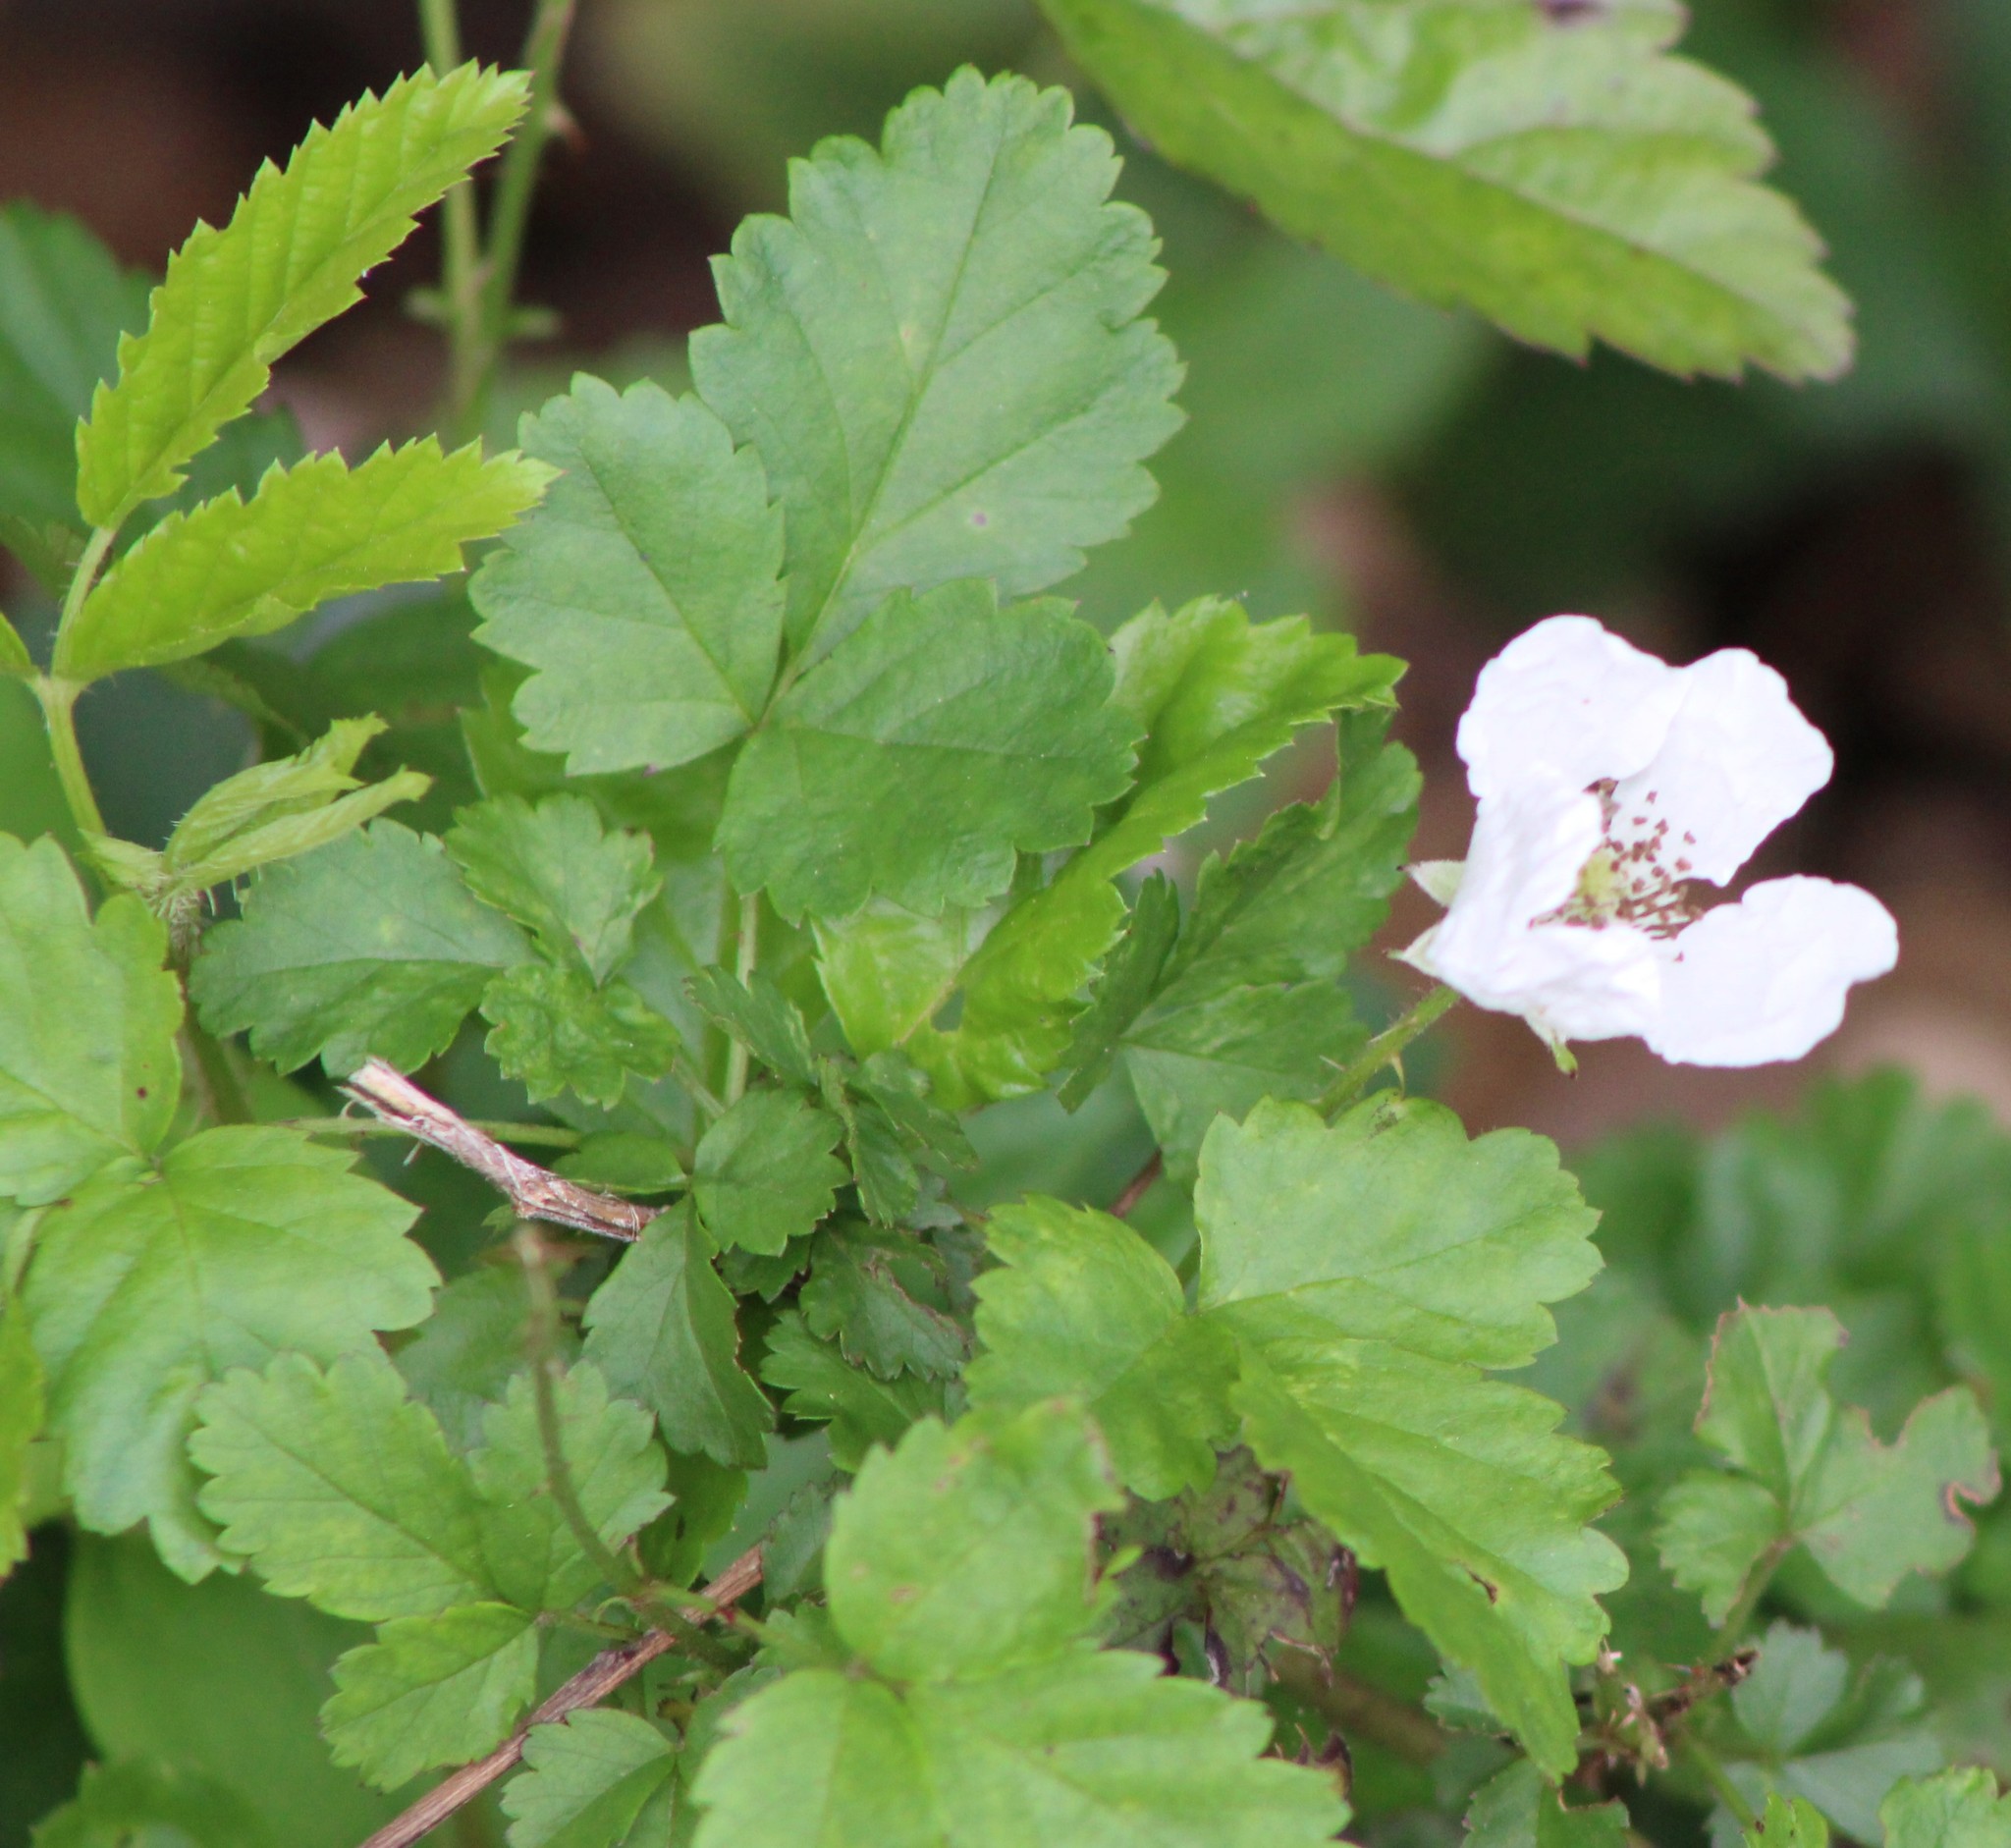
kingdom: Plantae
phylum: Tracheophyta
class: Magnoliopsida
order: Rosales
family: Rosaceae
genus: Rubus
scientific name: Rubus trivialis
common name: Southern dewberry
